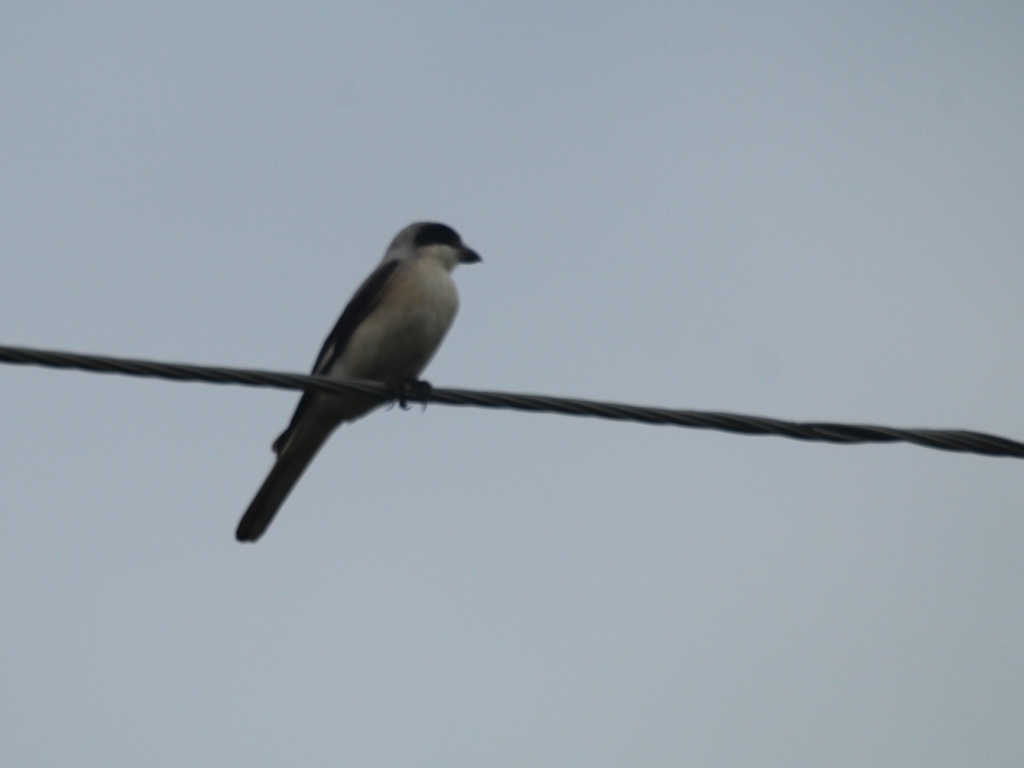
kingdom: Animalia
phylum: Chordata
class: Aves
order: Passeriformes
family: Laniidae
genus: Lanius
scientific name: Lanius minor
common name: Lesser grey shrike
